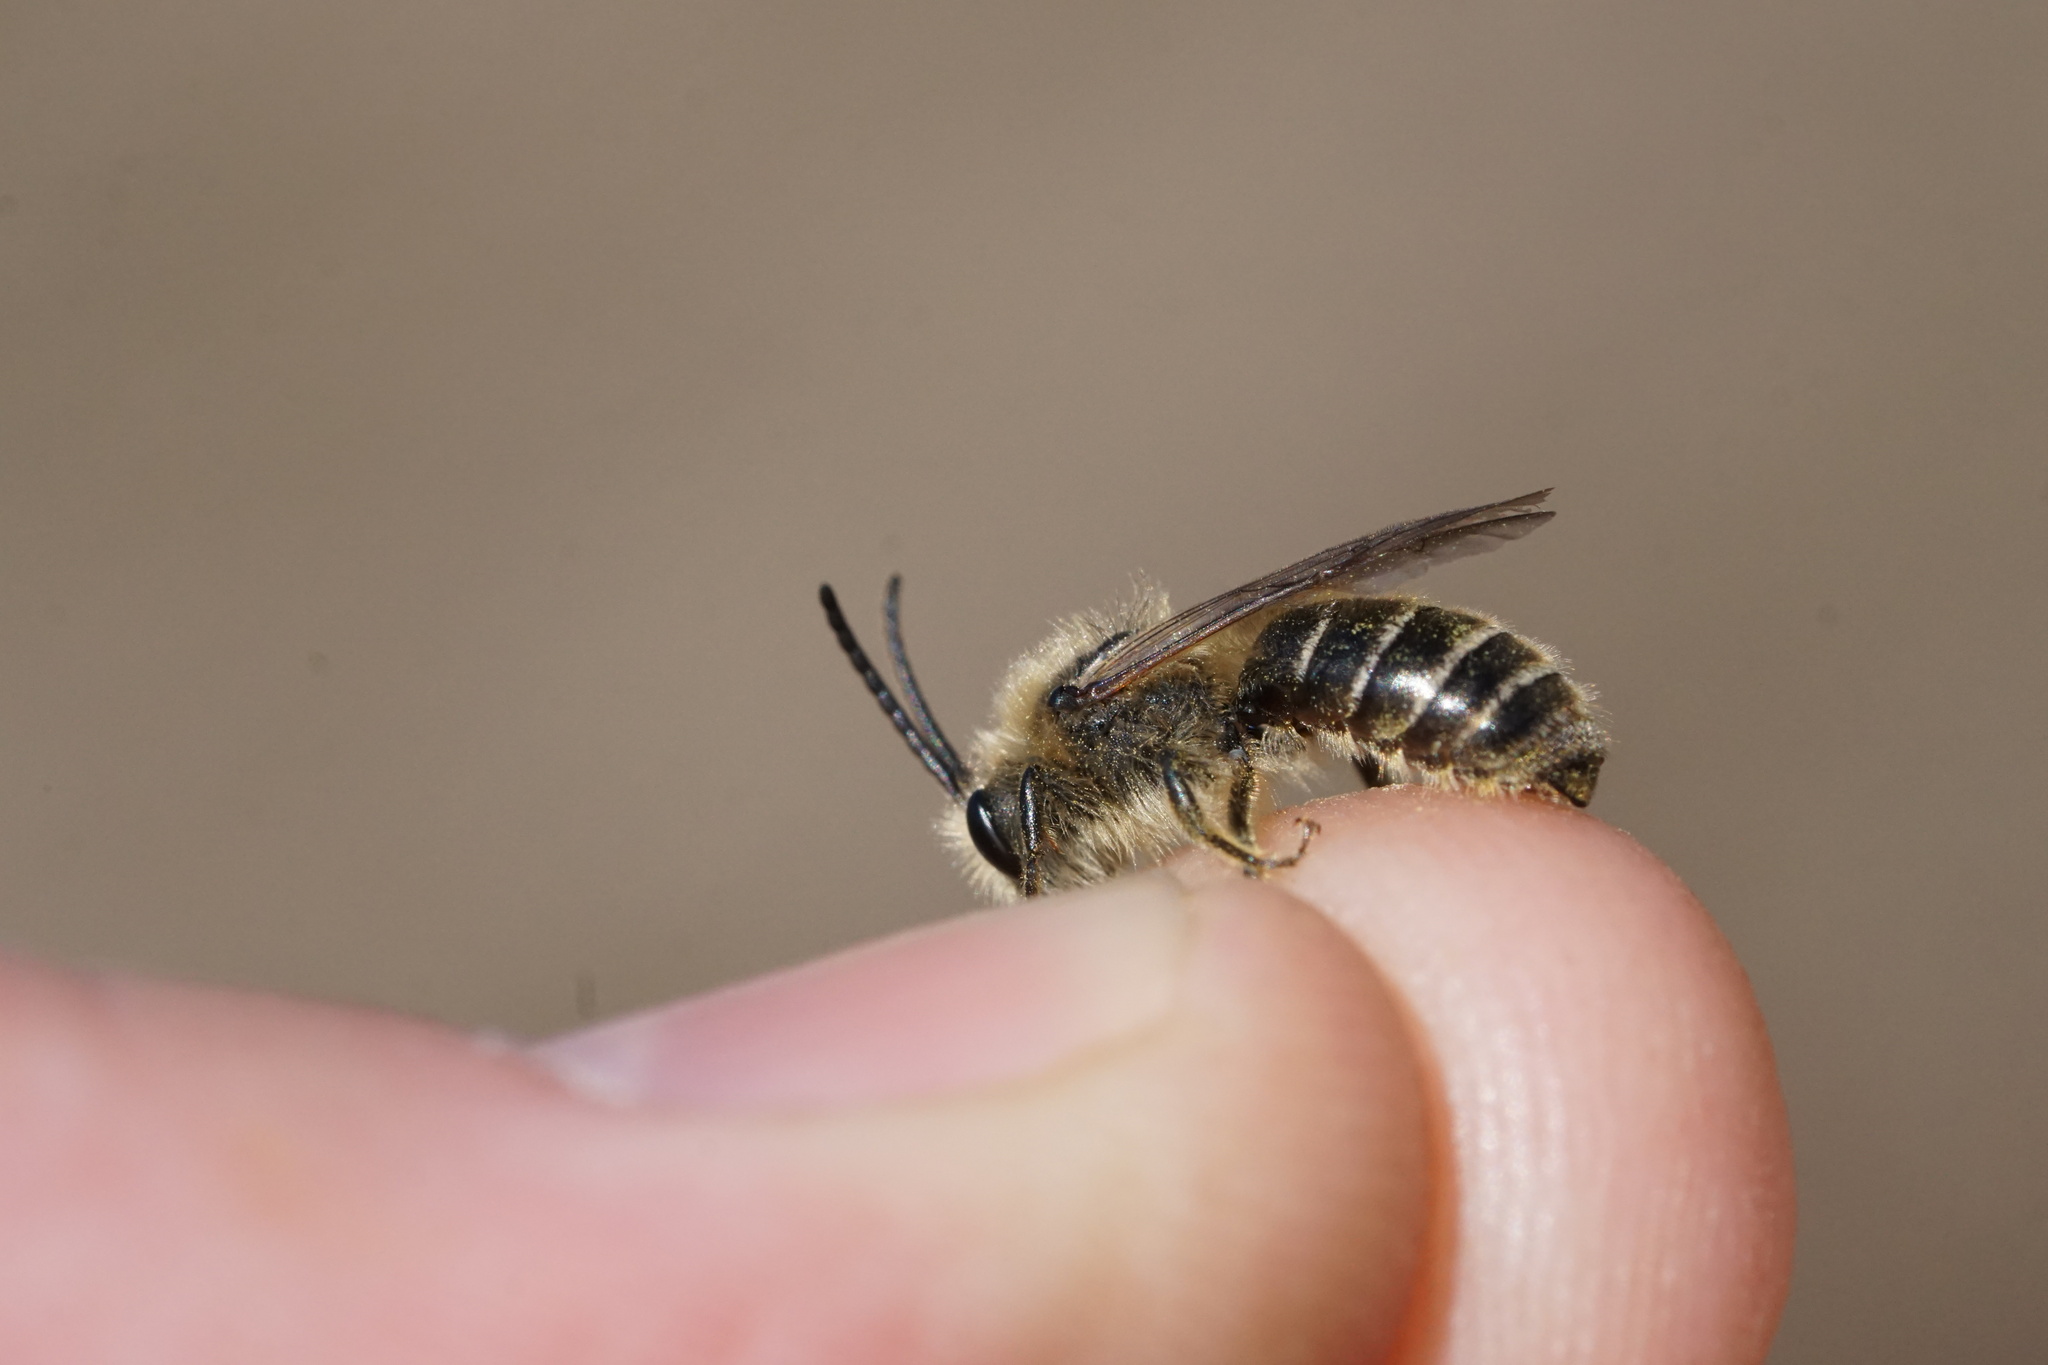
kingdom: Animalia
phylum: Arthropoda
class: Insecta
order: Hymenoptera
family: Colletidae
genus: Colletes
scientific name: Colletes inaequalis
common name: Unequal cellophane bee
